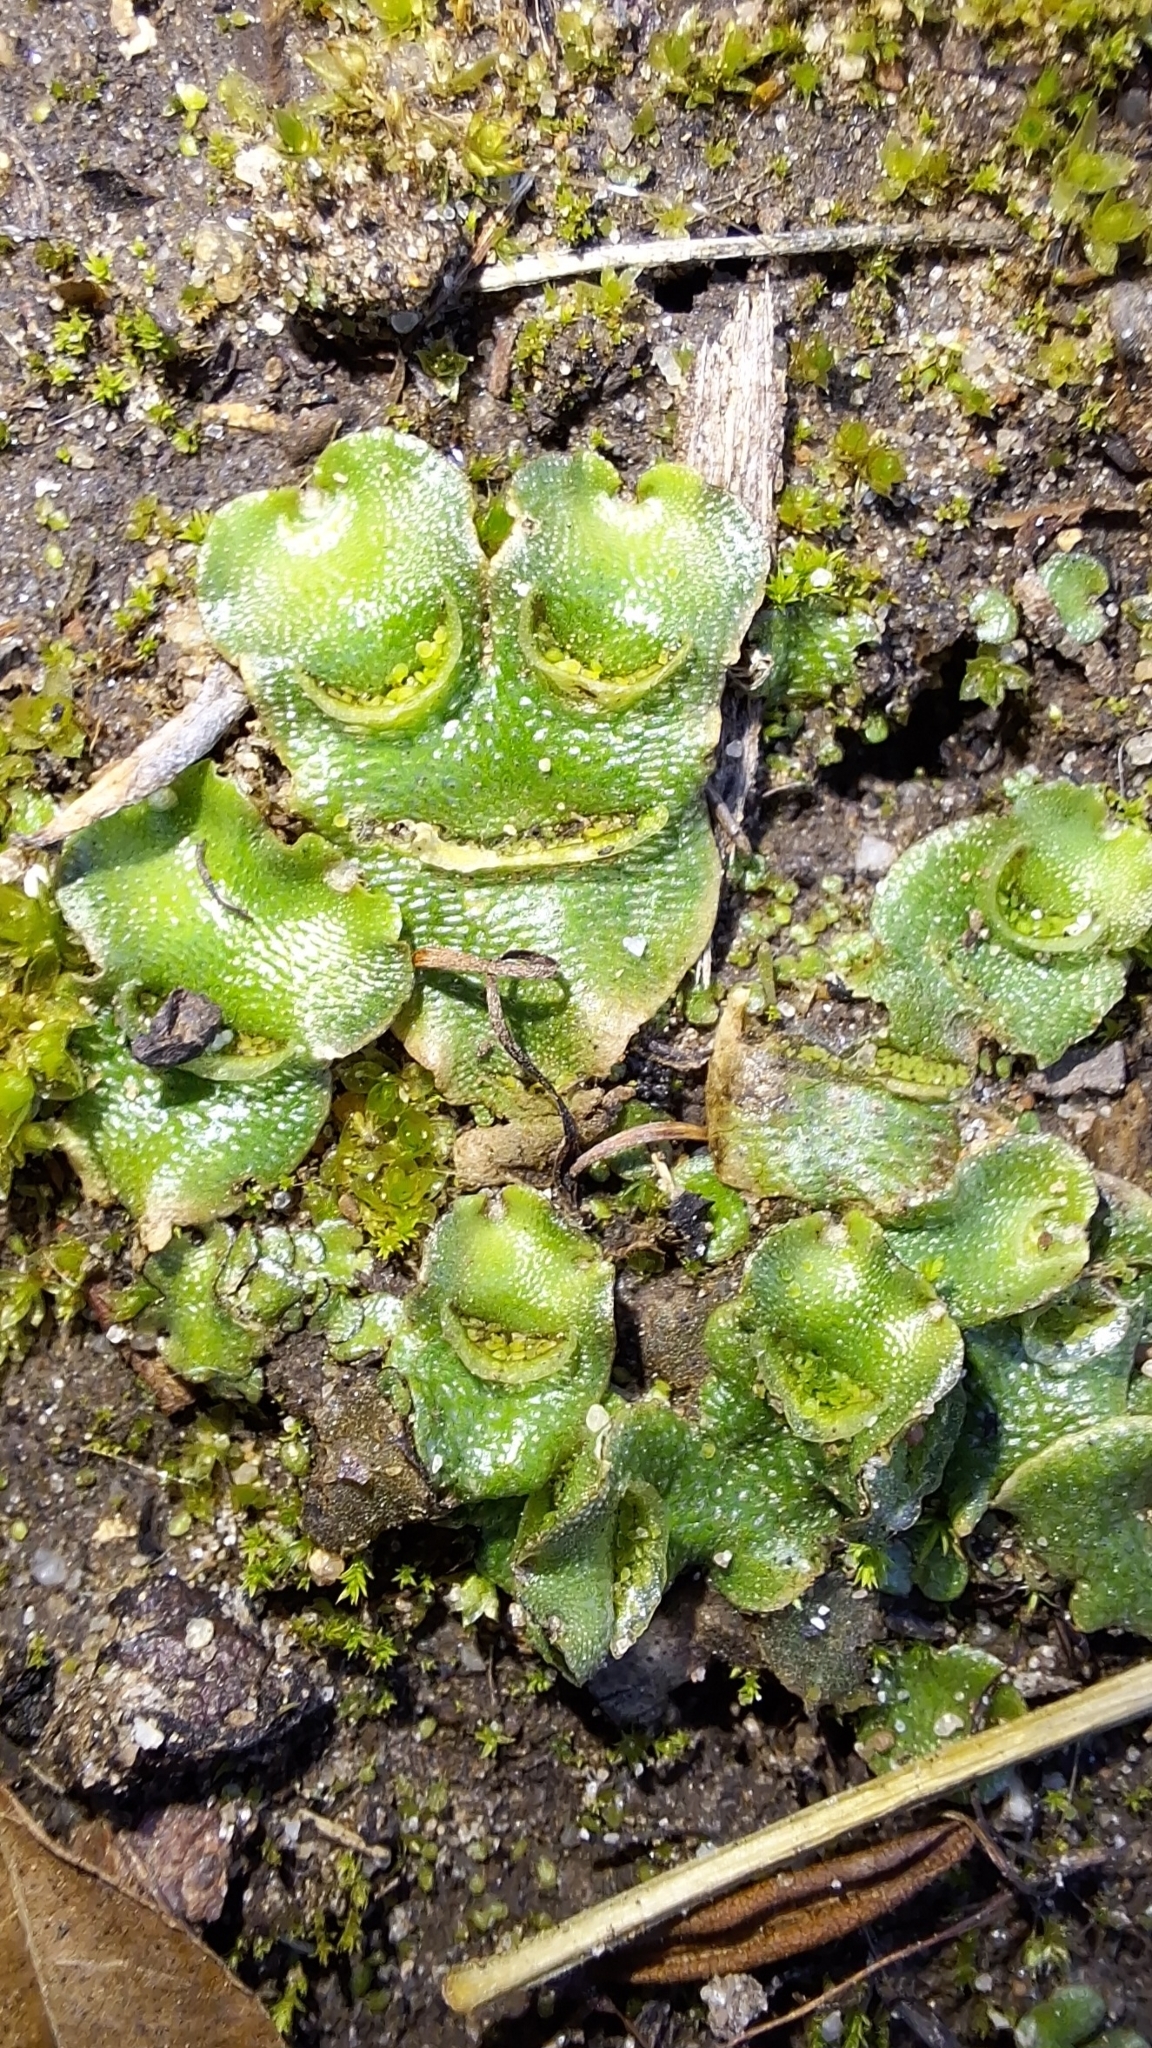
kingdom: Plantae
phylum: Marchantiophyta
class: Marchantiopsida
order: Lunulariales
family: Lunulariaceae
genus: Lunularia
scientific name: Lunularia cruciata
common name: Crescent-cup liverwort
